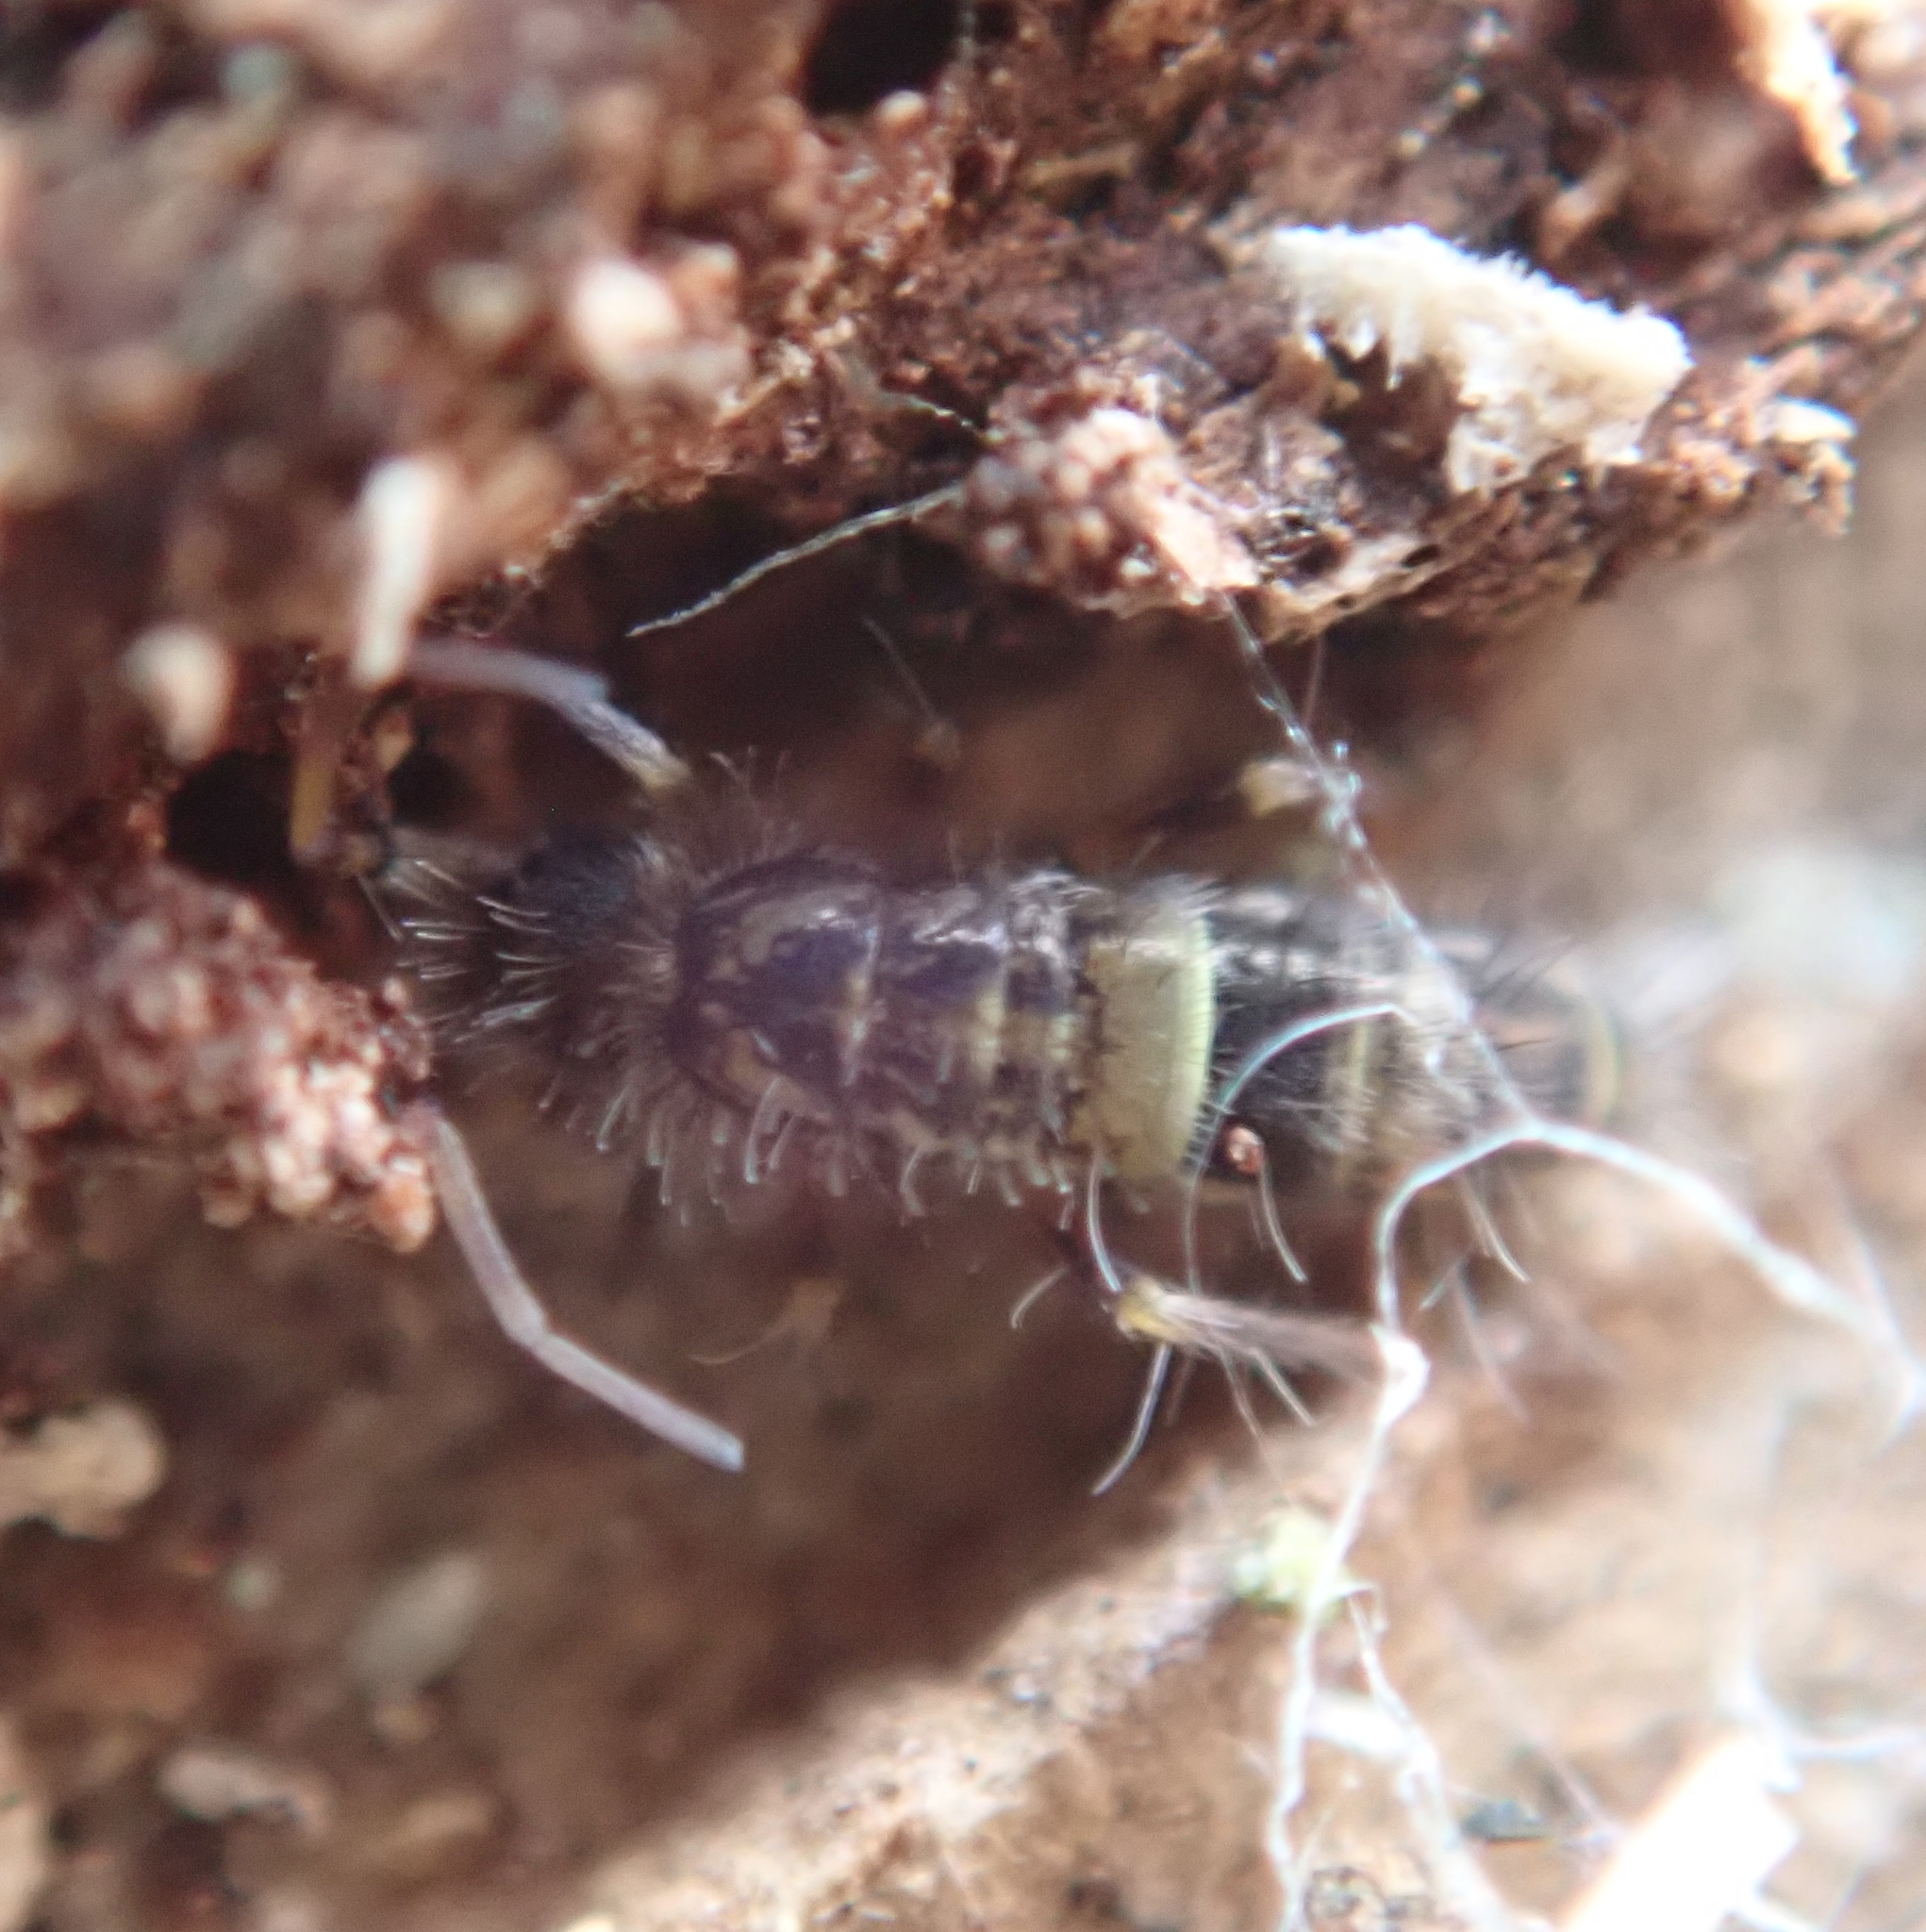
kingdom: Animalia
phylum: Arthropoda
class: Collembola
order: Entomobryomorpha
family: Orchesellidae
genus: Orchesella
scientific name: Orchesella cincta
